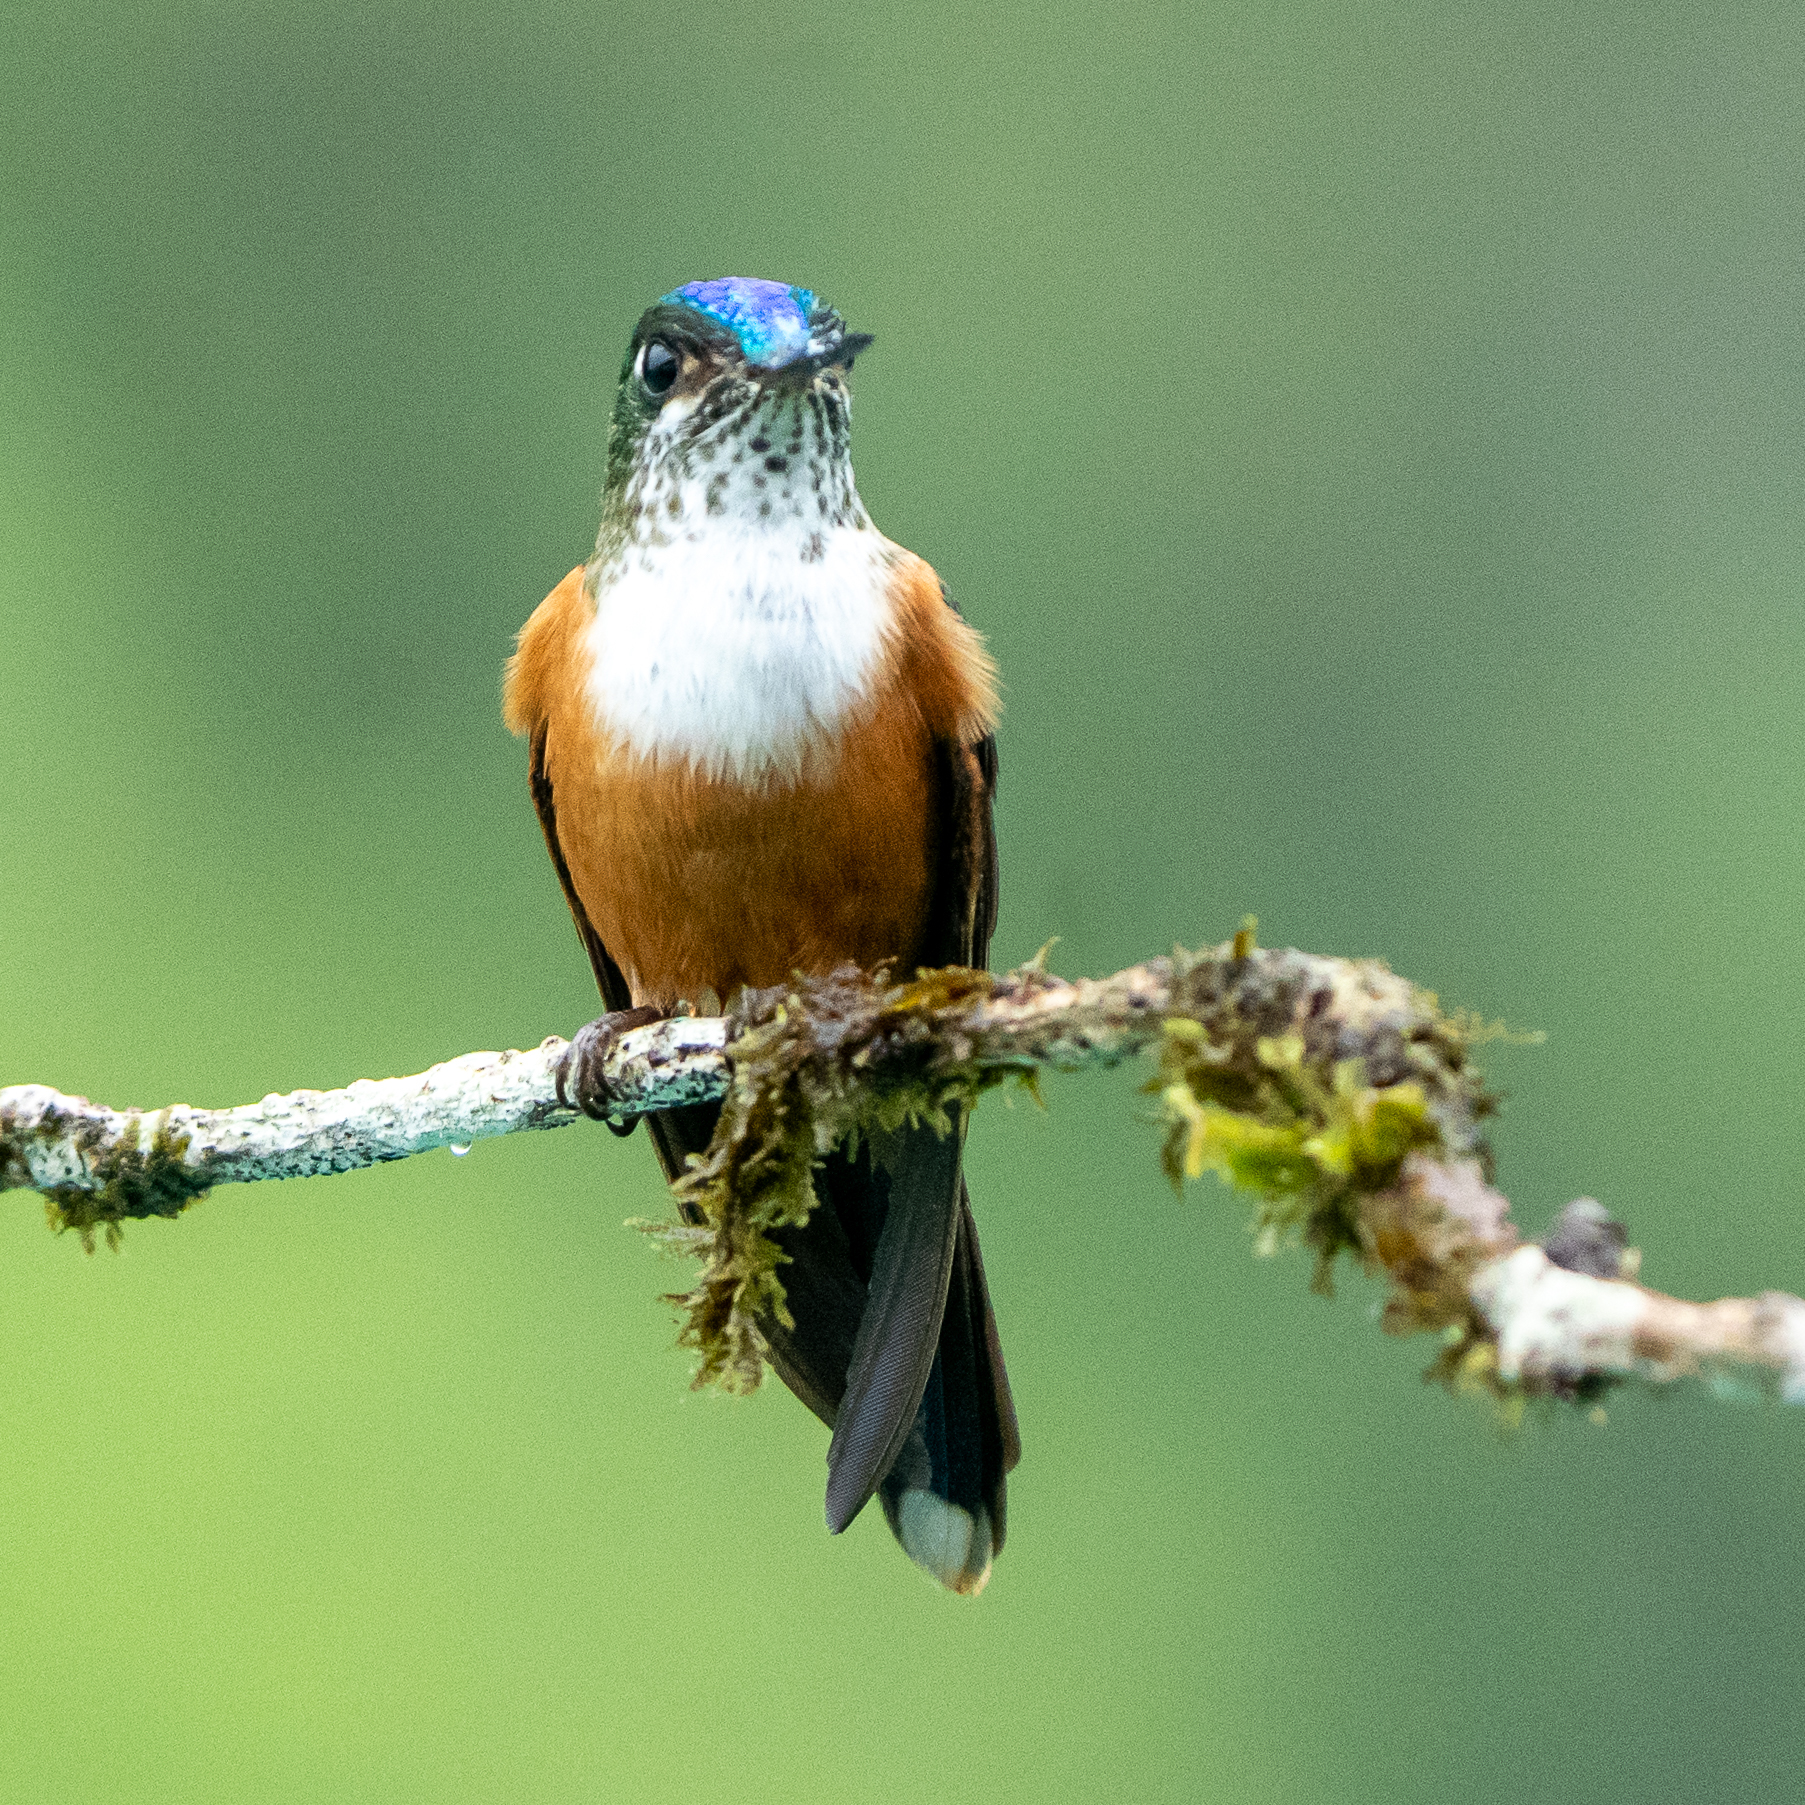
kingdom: Animalia
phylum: Chordata
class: Aves
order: Apodiformes
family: Trochilidae
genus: Aglaiocercus
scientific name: Aglaiocercus coelestis
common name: Violet-tailed sylph
